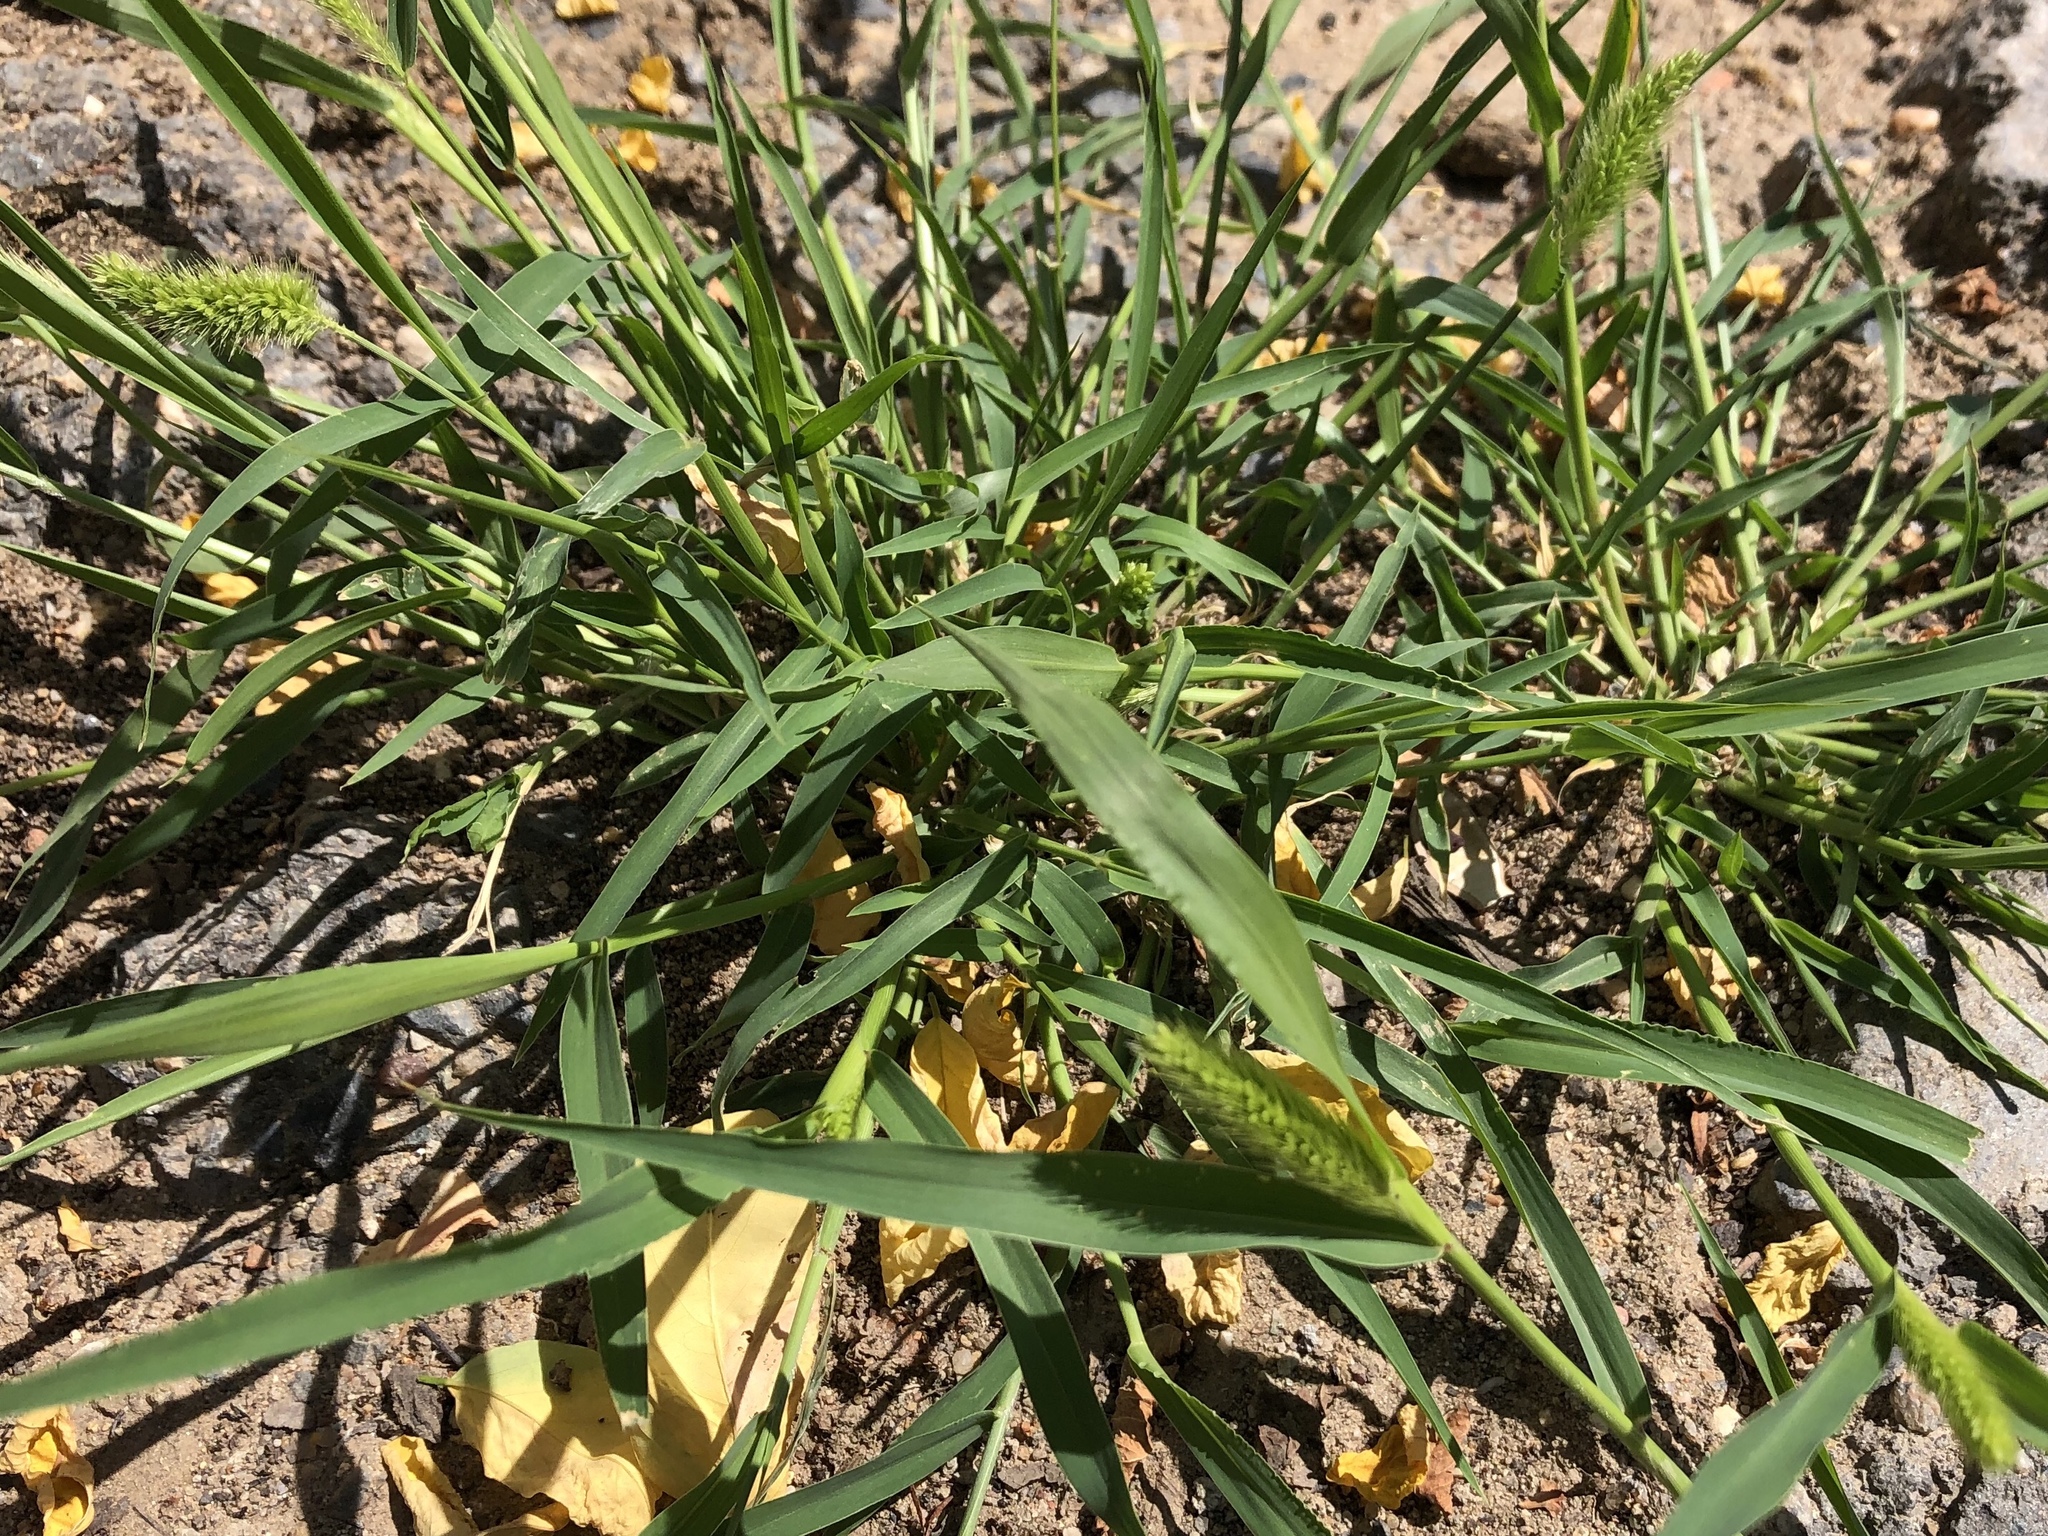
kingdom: Plantae
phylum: Tracheophyta
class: Liliopsida
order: Poales
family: Poaceae
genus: Setaria
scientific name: Setaria viridis
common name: Green bristlegrass
